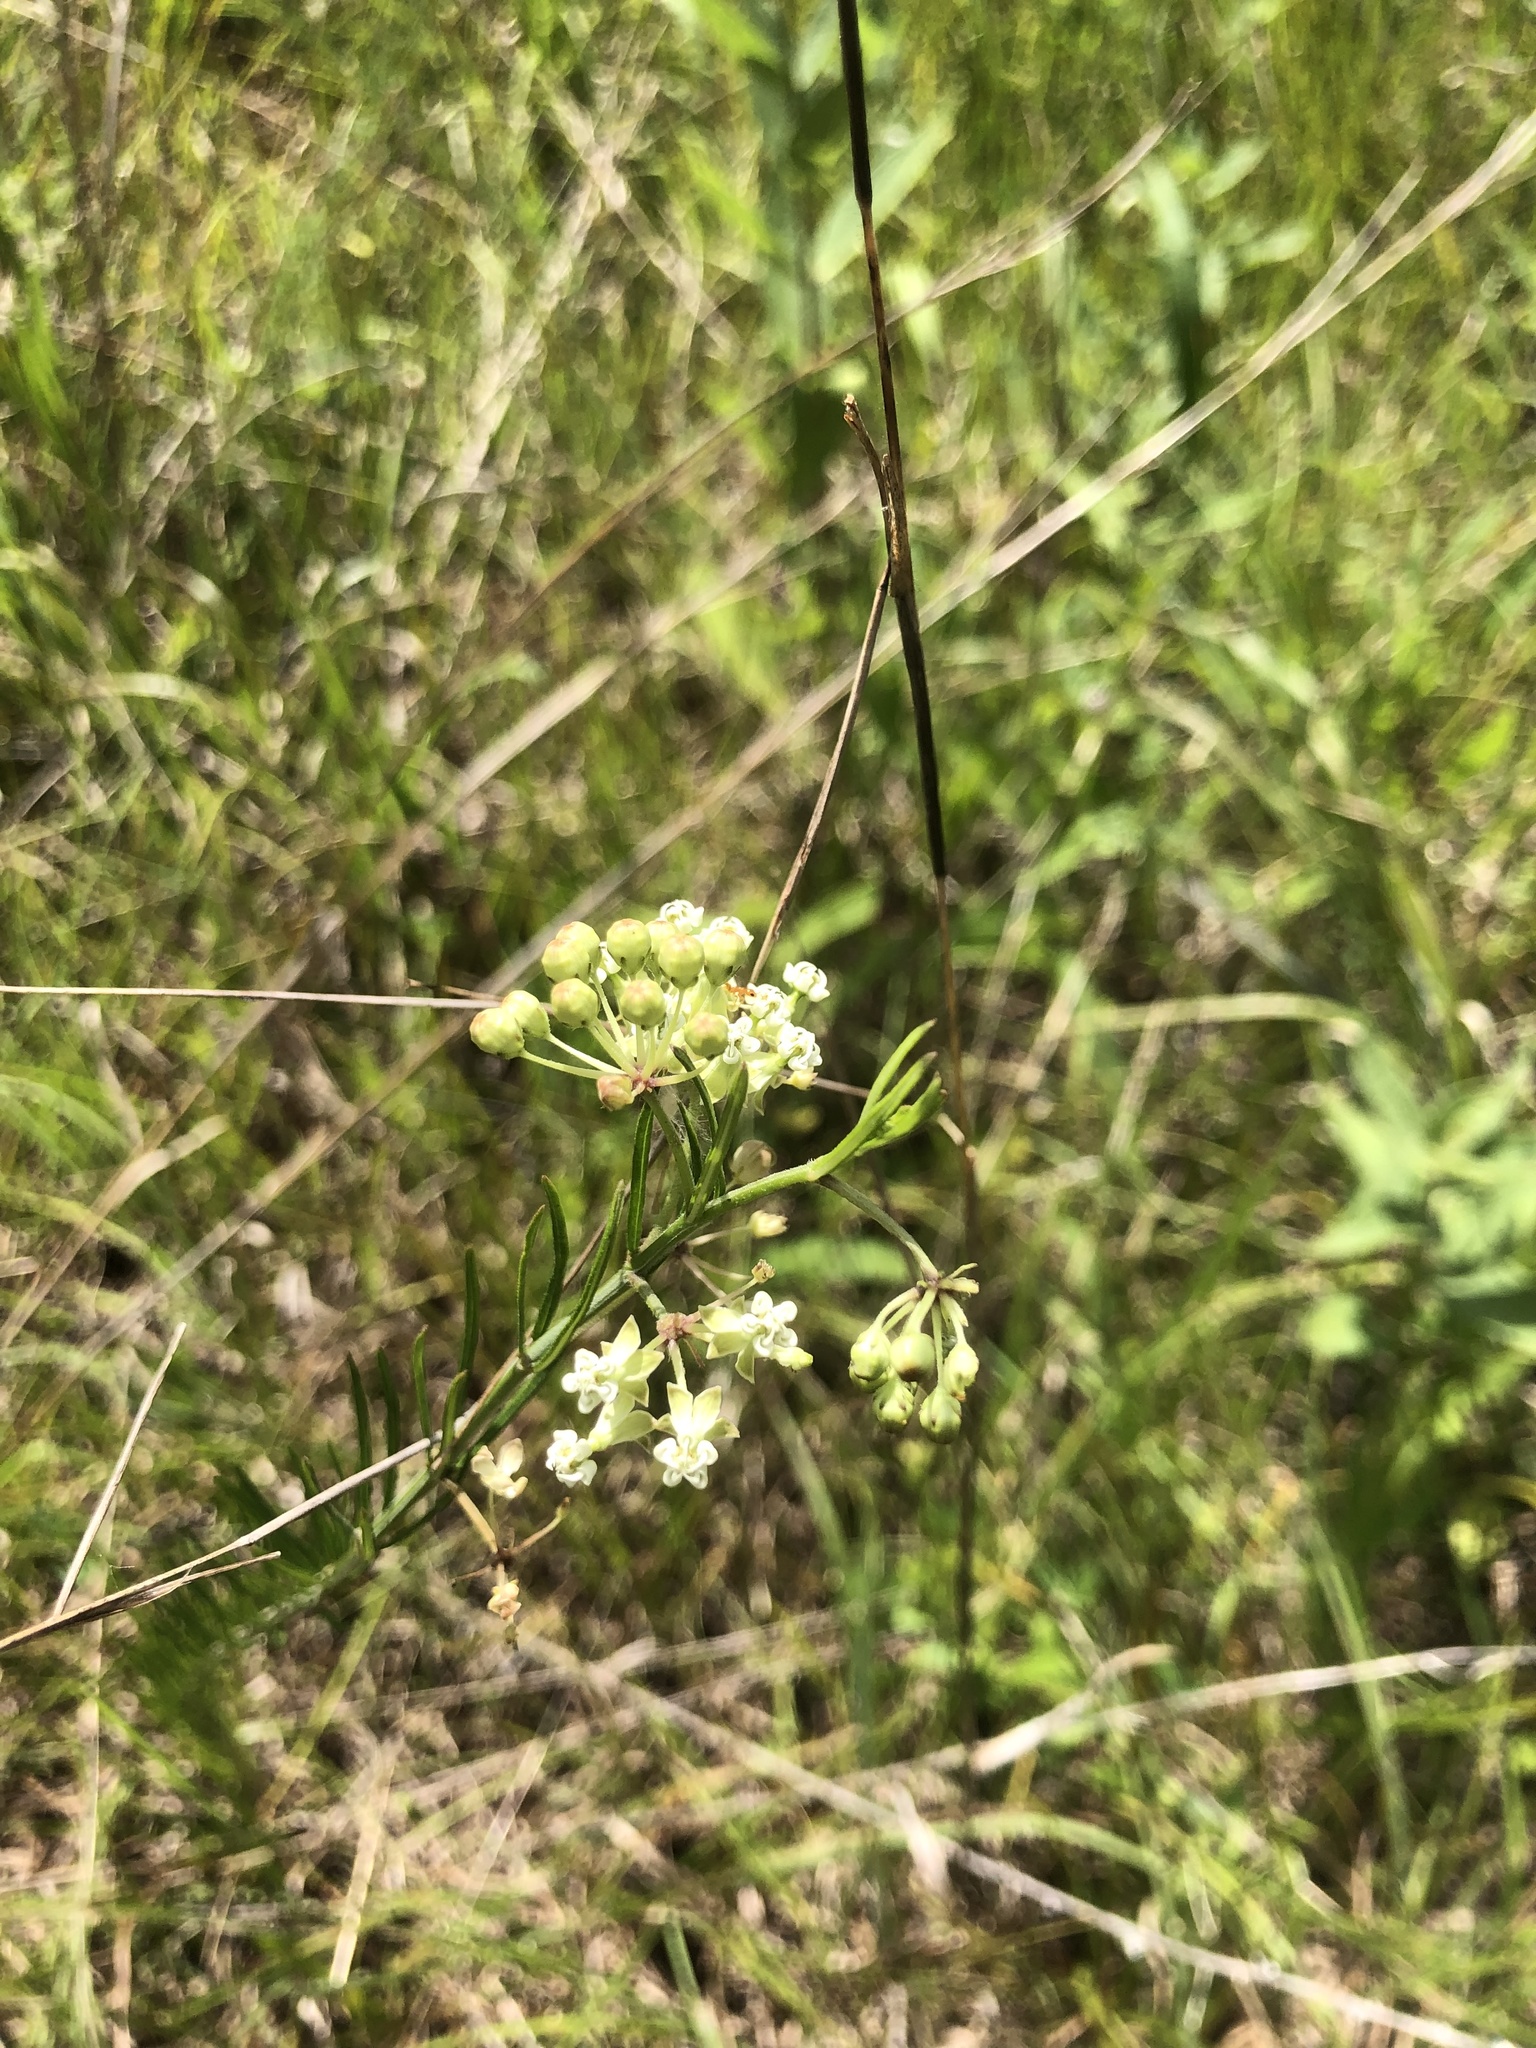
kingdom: Plantae
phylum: Tracheophyta
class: Magnoliopsida
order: Gentianales
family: Apocynaceae
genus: Asclepias
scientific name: Asclepias verticillata
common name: Eastern whorled milkweed
